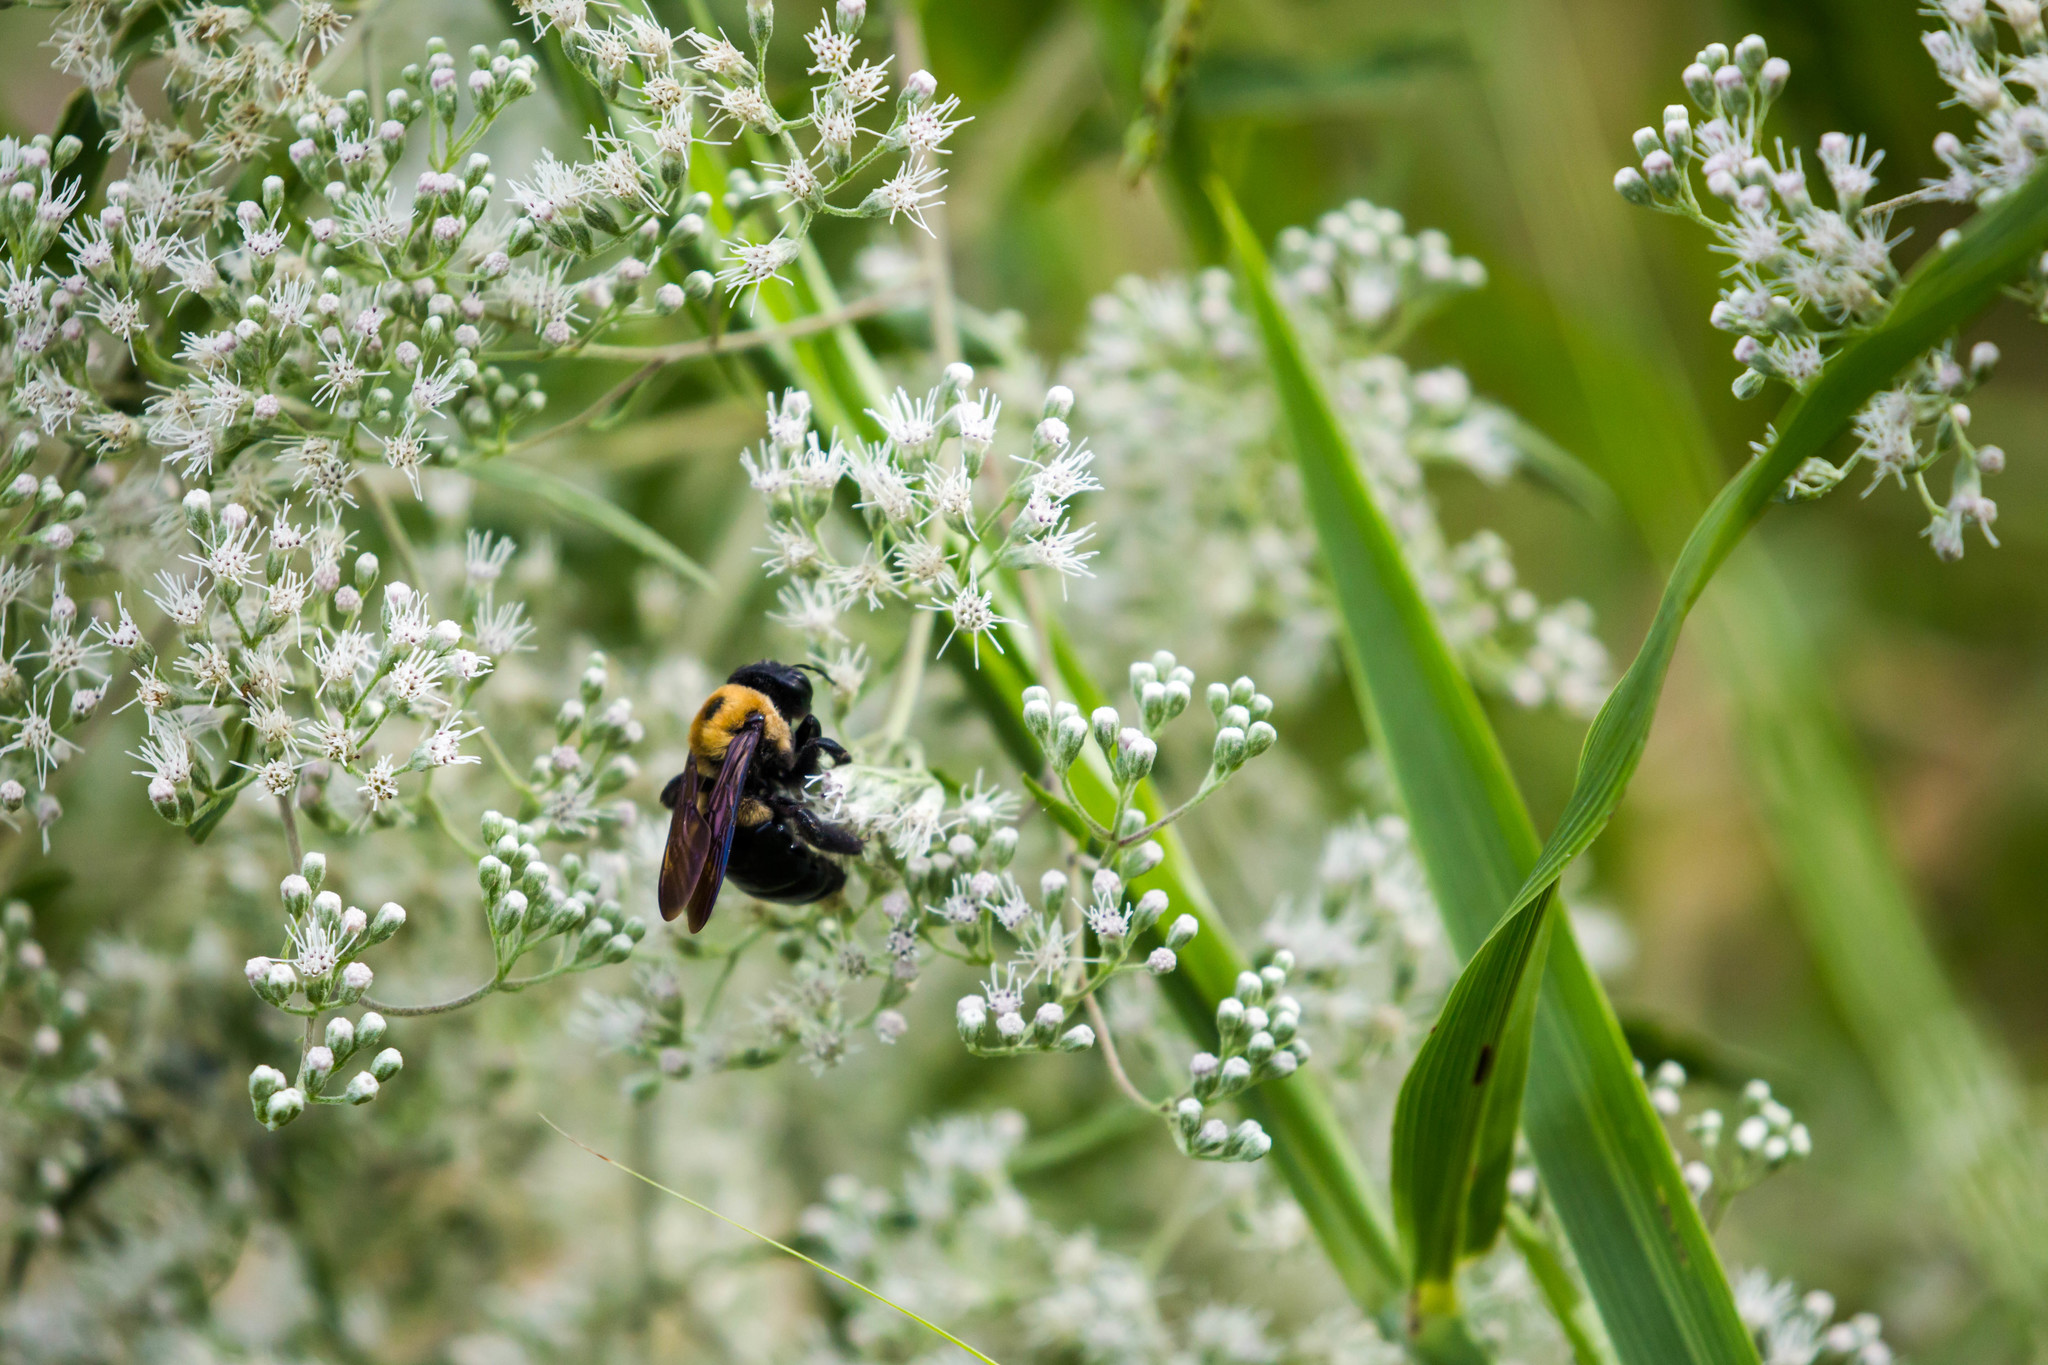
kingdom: Animalia
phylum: Arthropoda
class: Insecta
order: Hymenoptera
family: Apidae
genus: Xylocopa
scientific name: Xylocopa virginica
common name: Carpenter bee
